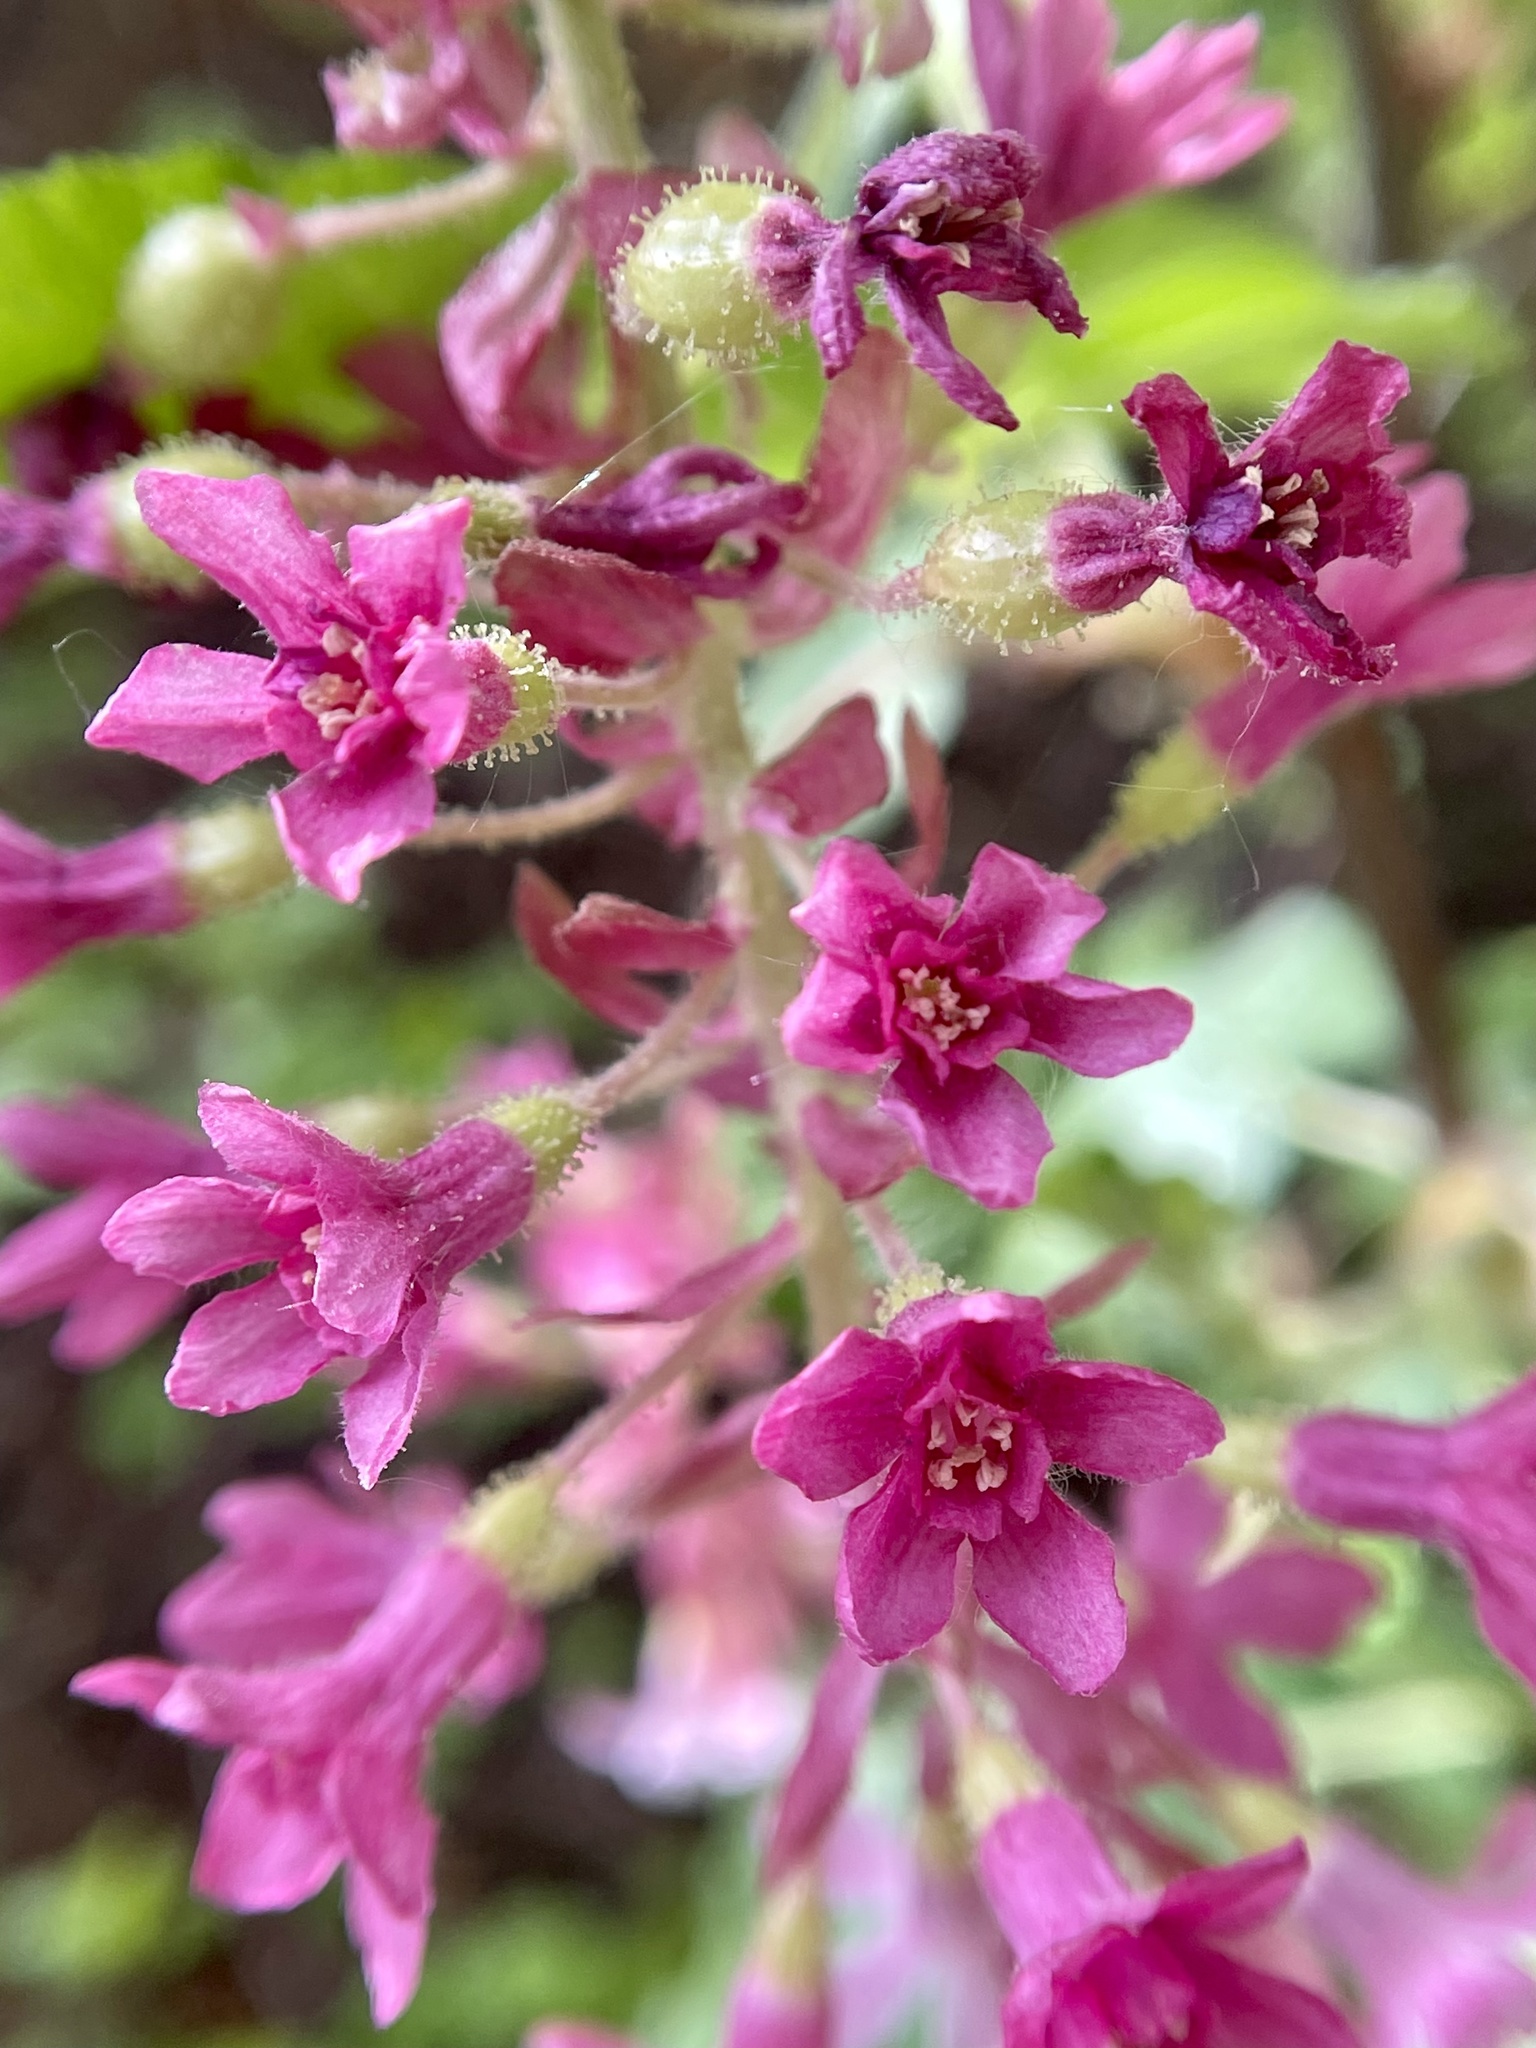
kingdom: Plantae
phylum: Tracheophyta
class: Magnoliopsida
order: Saxifragales
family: Grossulariaceae
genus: Ribes
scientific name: Ribes sanguineum
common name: Flowering currant
